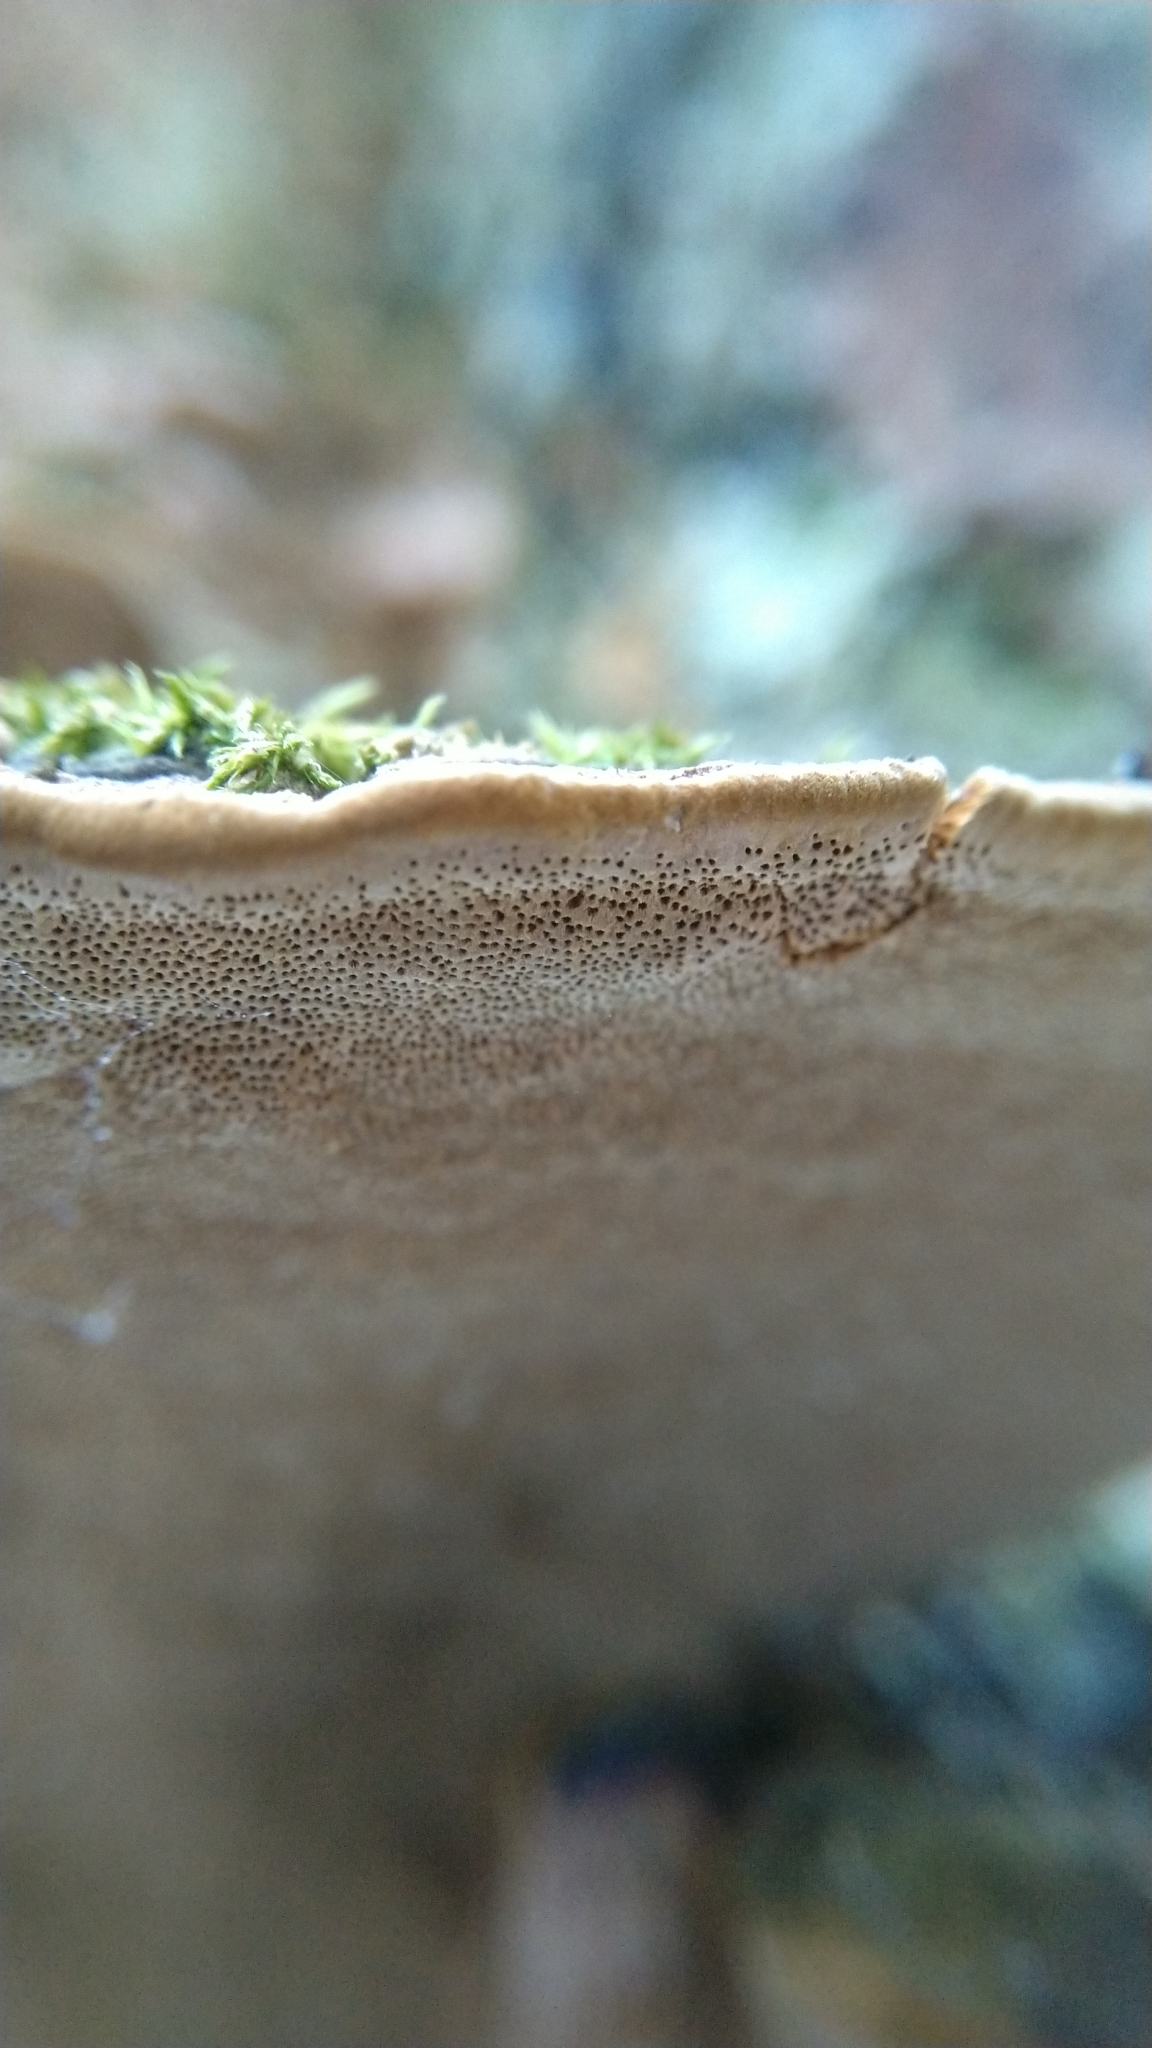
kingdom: Fungi
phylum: Basidiomycota
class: Agaricomycetes
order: Hymenochaetales
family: Hymenochaetaceae
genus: Phellinopsis
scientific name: Phellinopsis conchata
